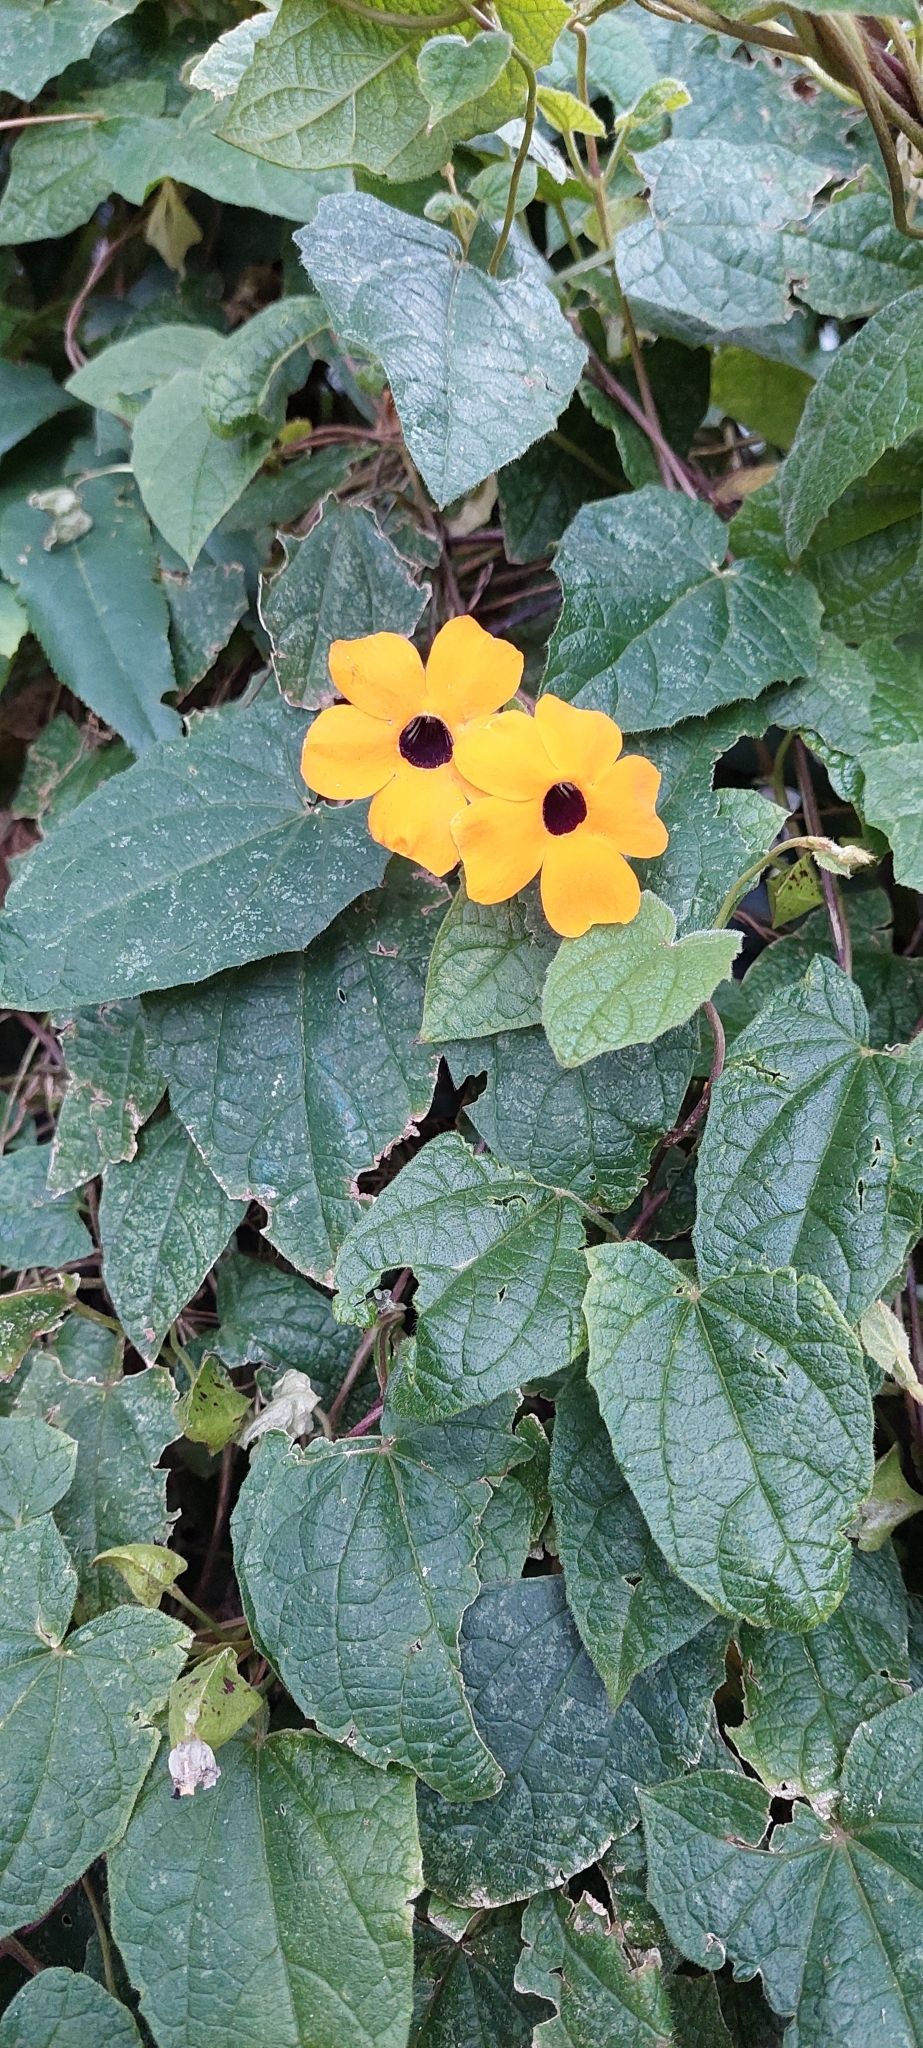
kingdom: Plantae
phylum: Tracheophyta
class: Magnoliopsida
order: Lamiales
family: Acanthaceae
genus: Thunbergia
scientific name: Thunbergia alata
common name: Blackeyed susan vine
